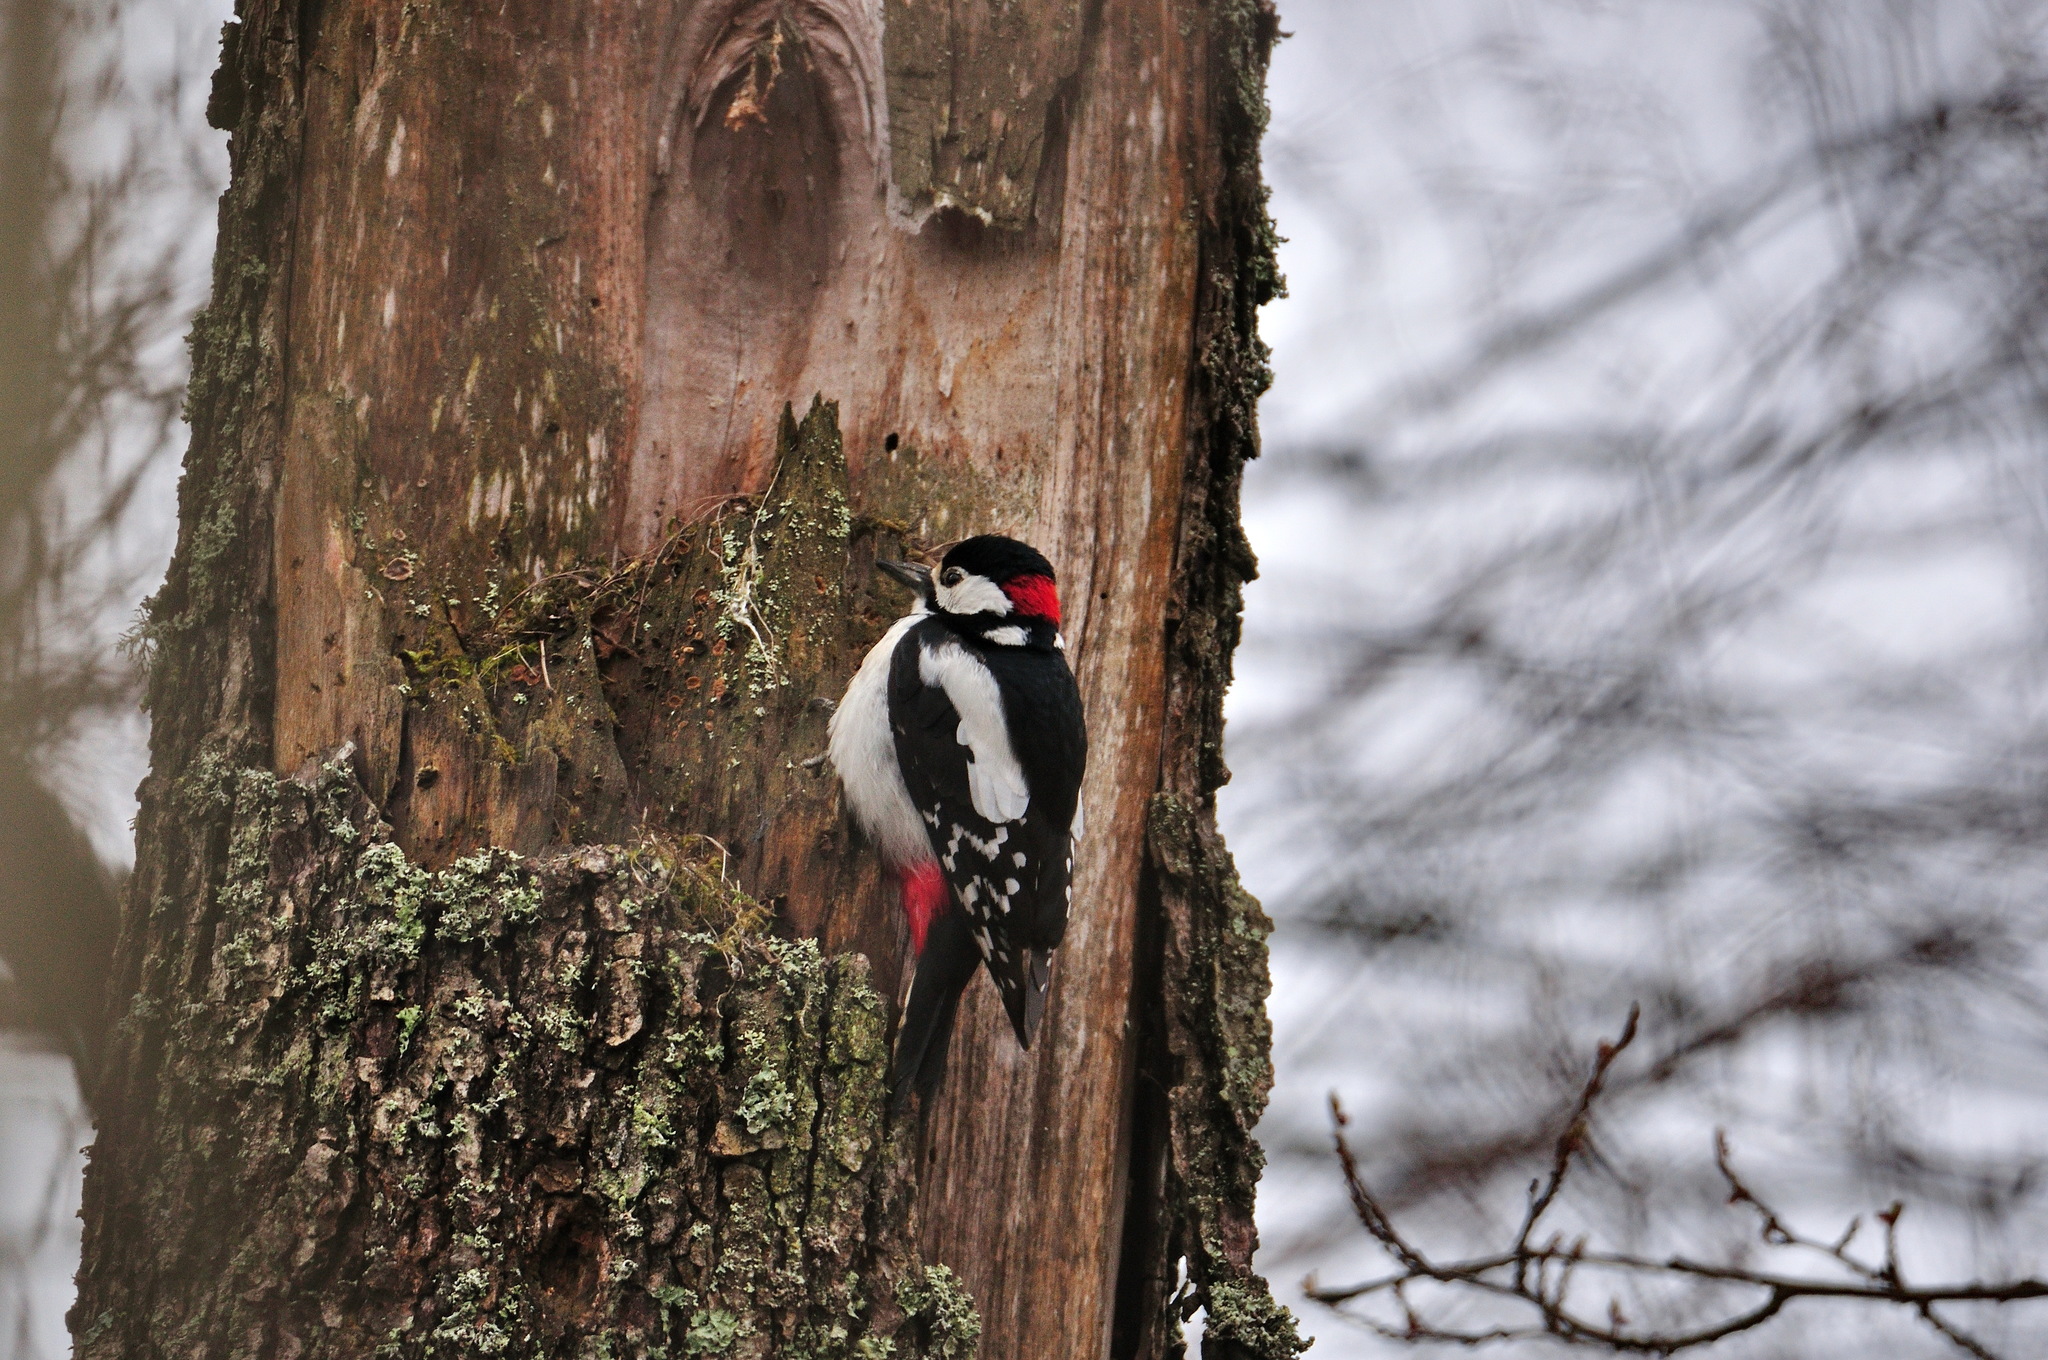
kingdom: Animalia
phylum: Chordata
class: Aves
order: Piciformes
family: Picidae
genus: Dendrocopos
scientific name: Dendrocopos major
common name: Great spotted woodpecker
